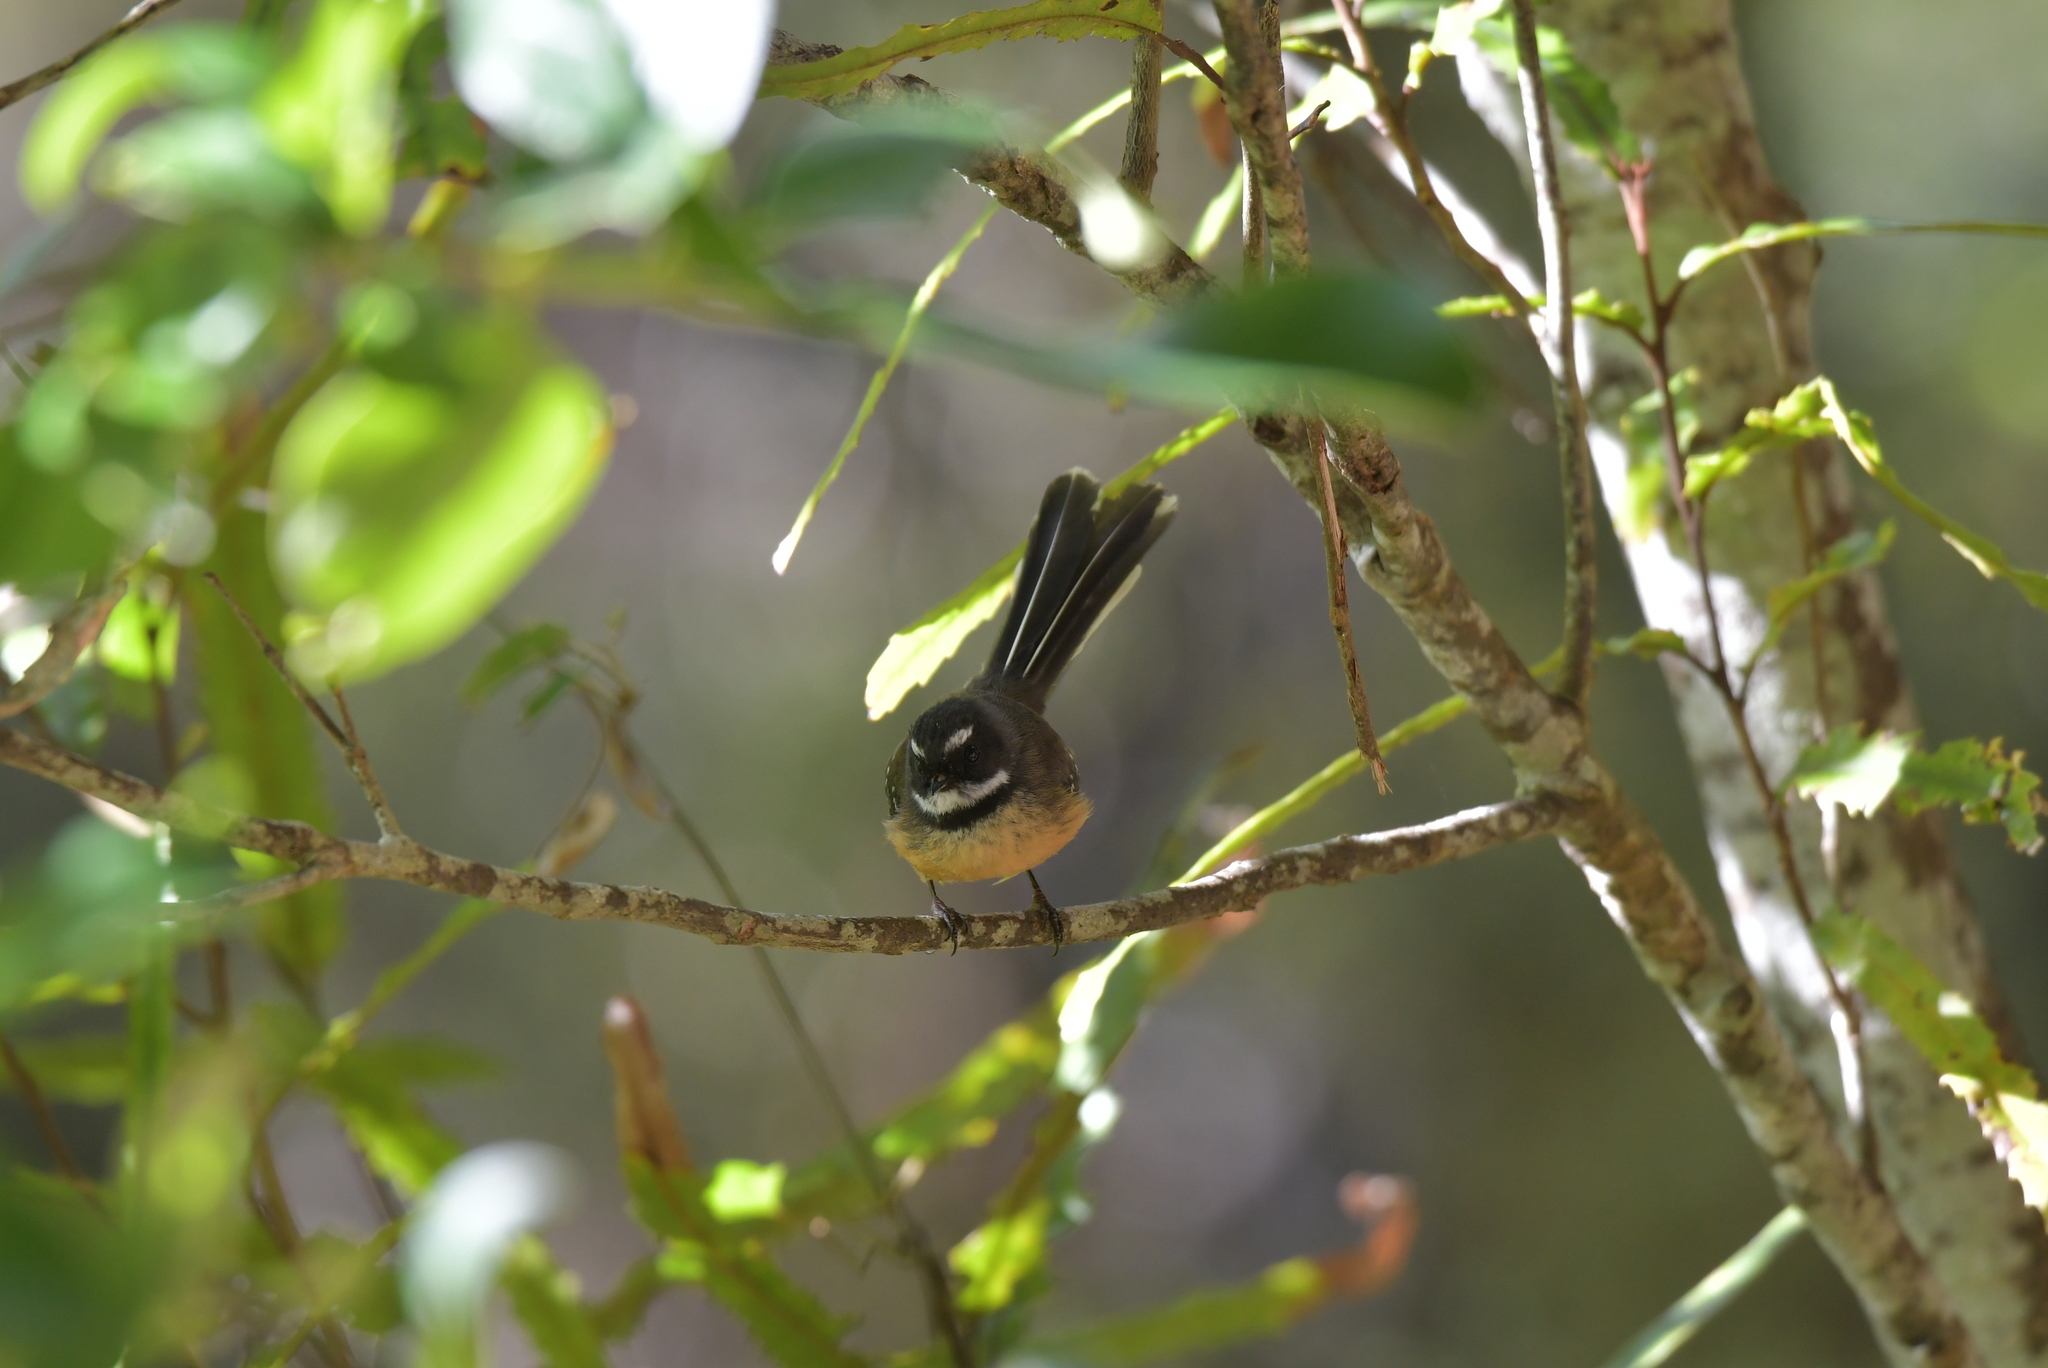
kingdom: Animalia
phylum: Chordata
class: Aves
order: Passeriformes
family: Rhipiduridae
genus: Rhipidura
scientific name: Rhipidura fuliginosa
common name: New zealand fantail
